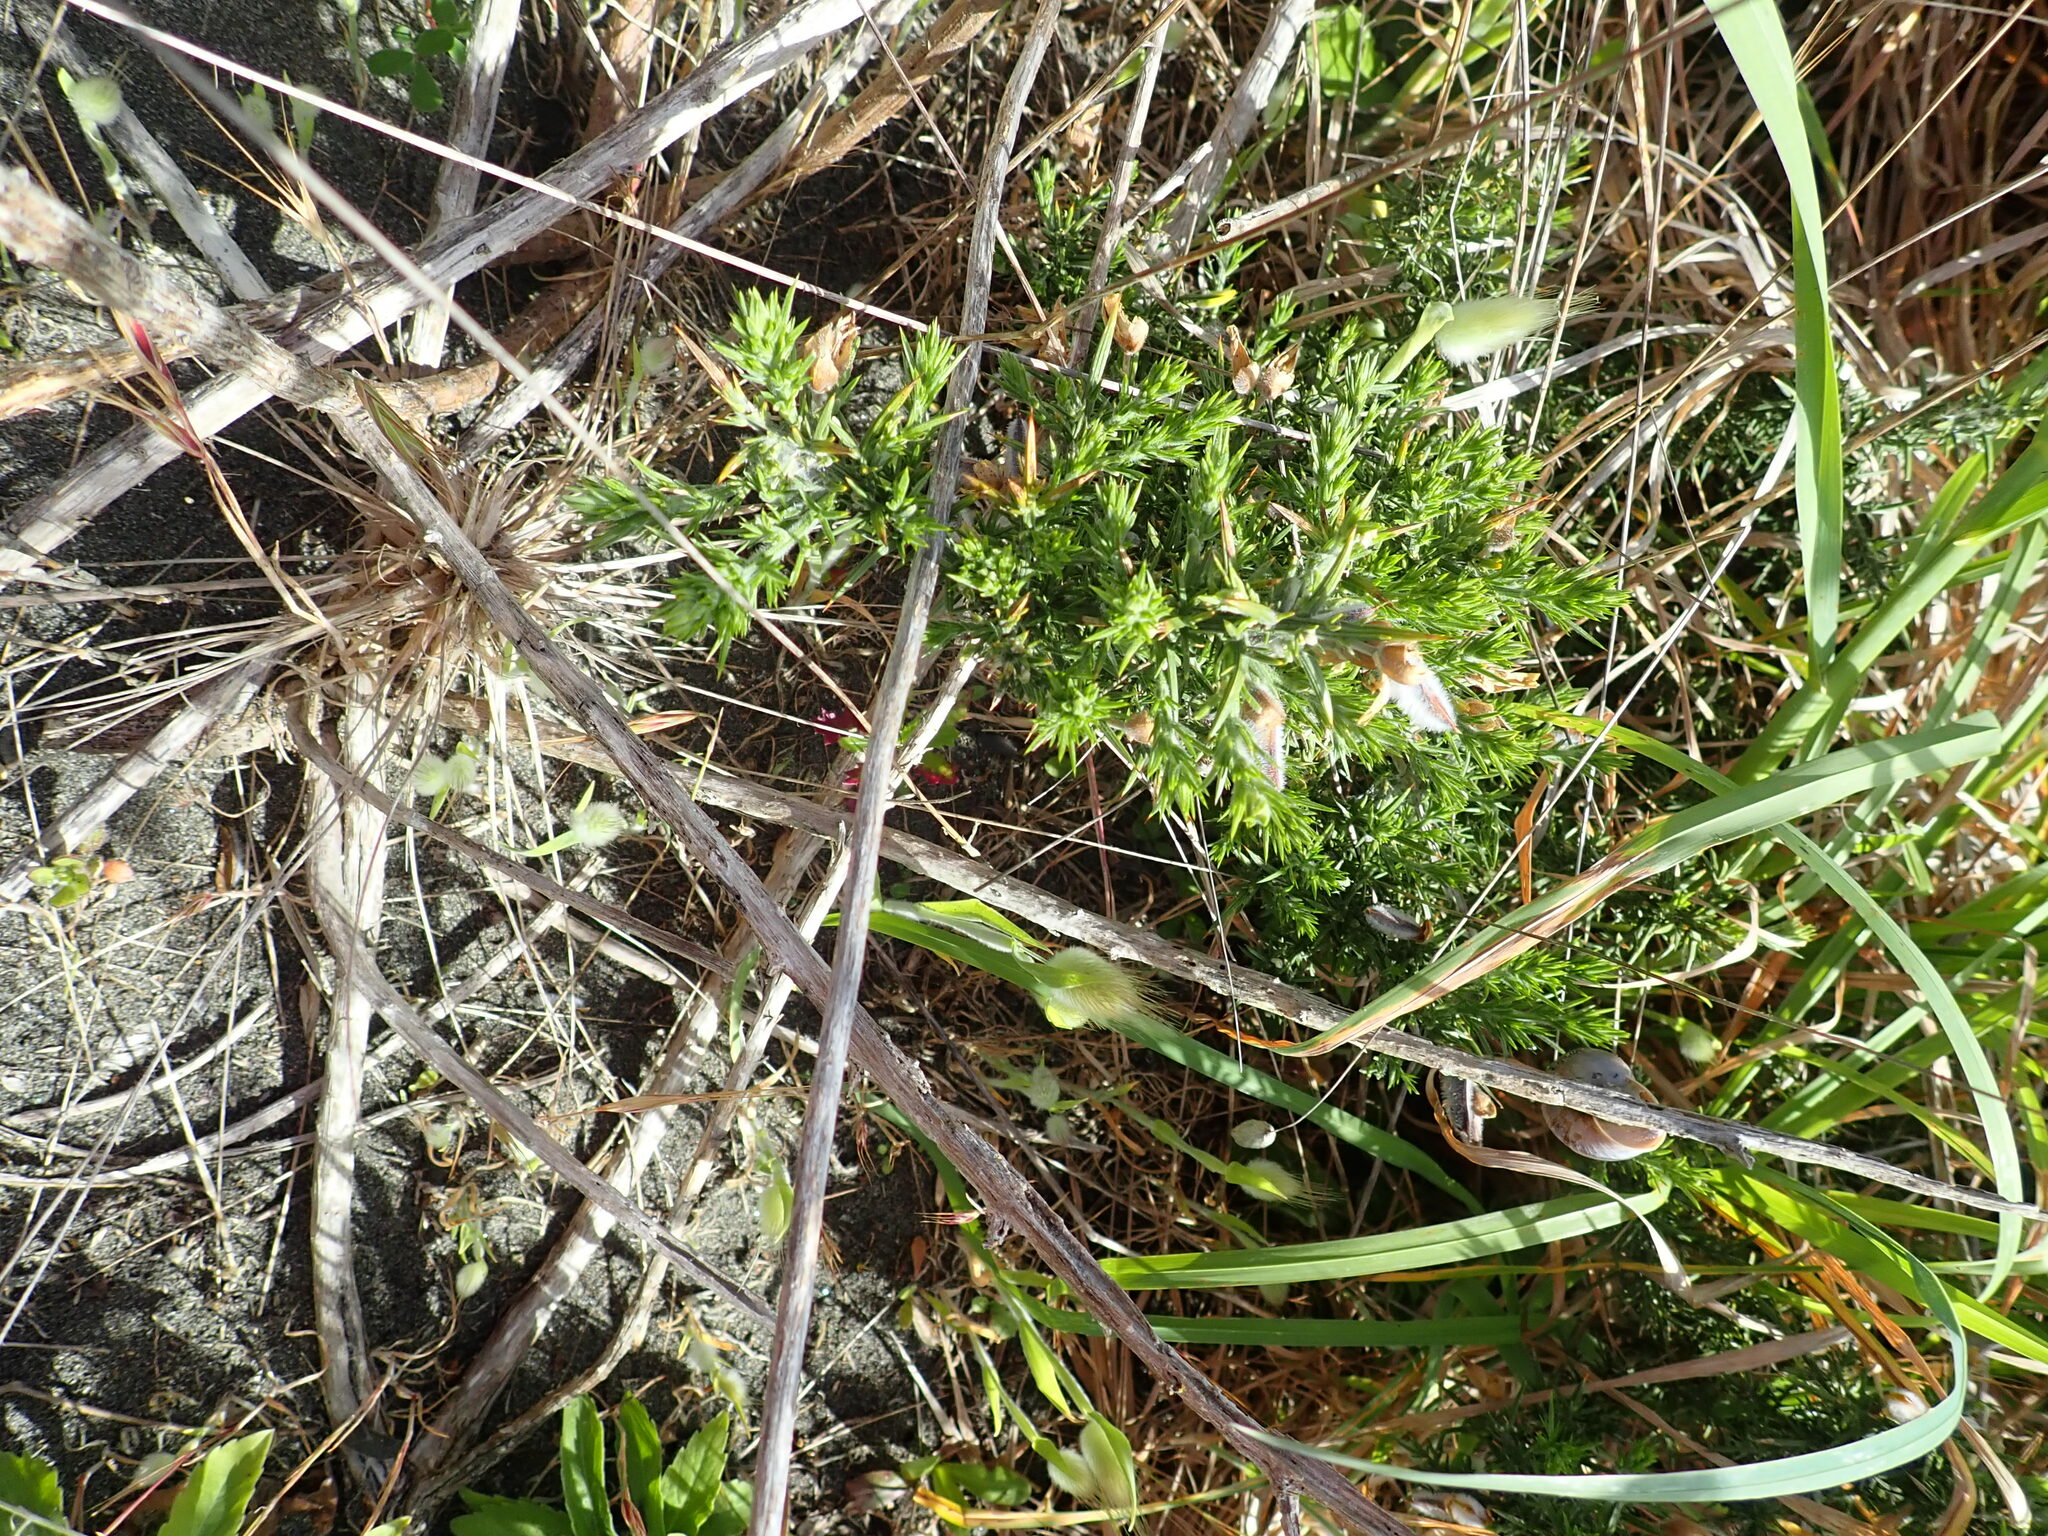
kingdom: Plantae
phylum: Tracheophyta
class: Magnoliopsida
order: Fabales
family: Fabaceae
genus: Ulex
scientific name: Ulex europaeus
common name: Common gorse
